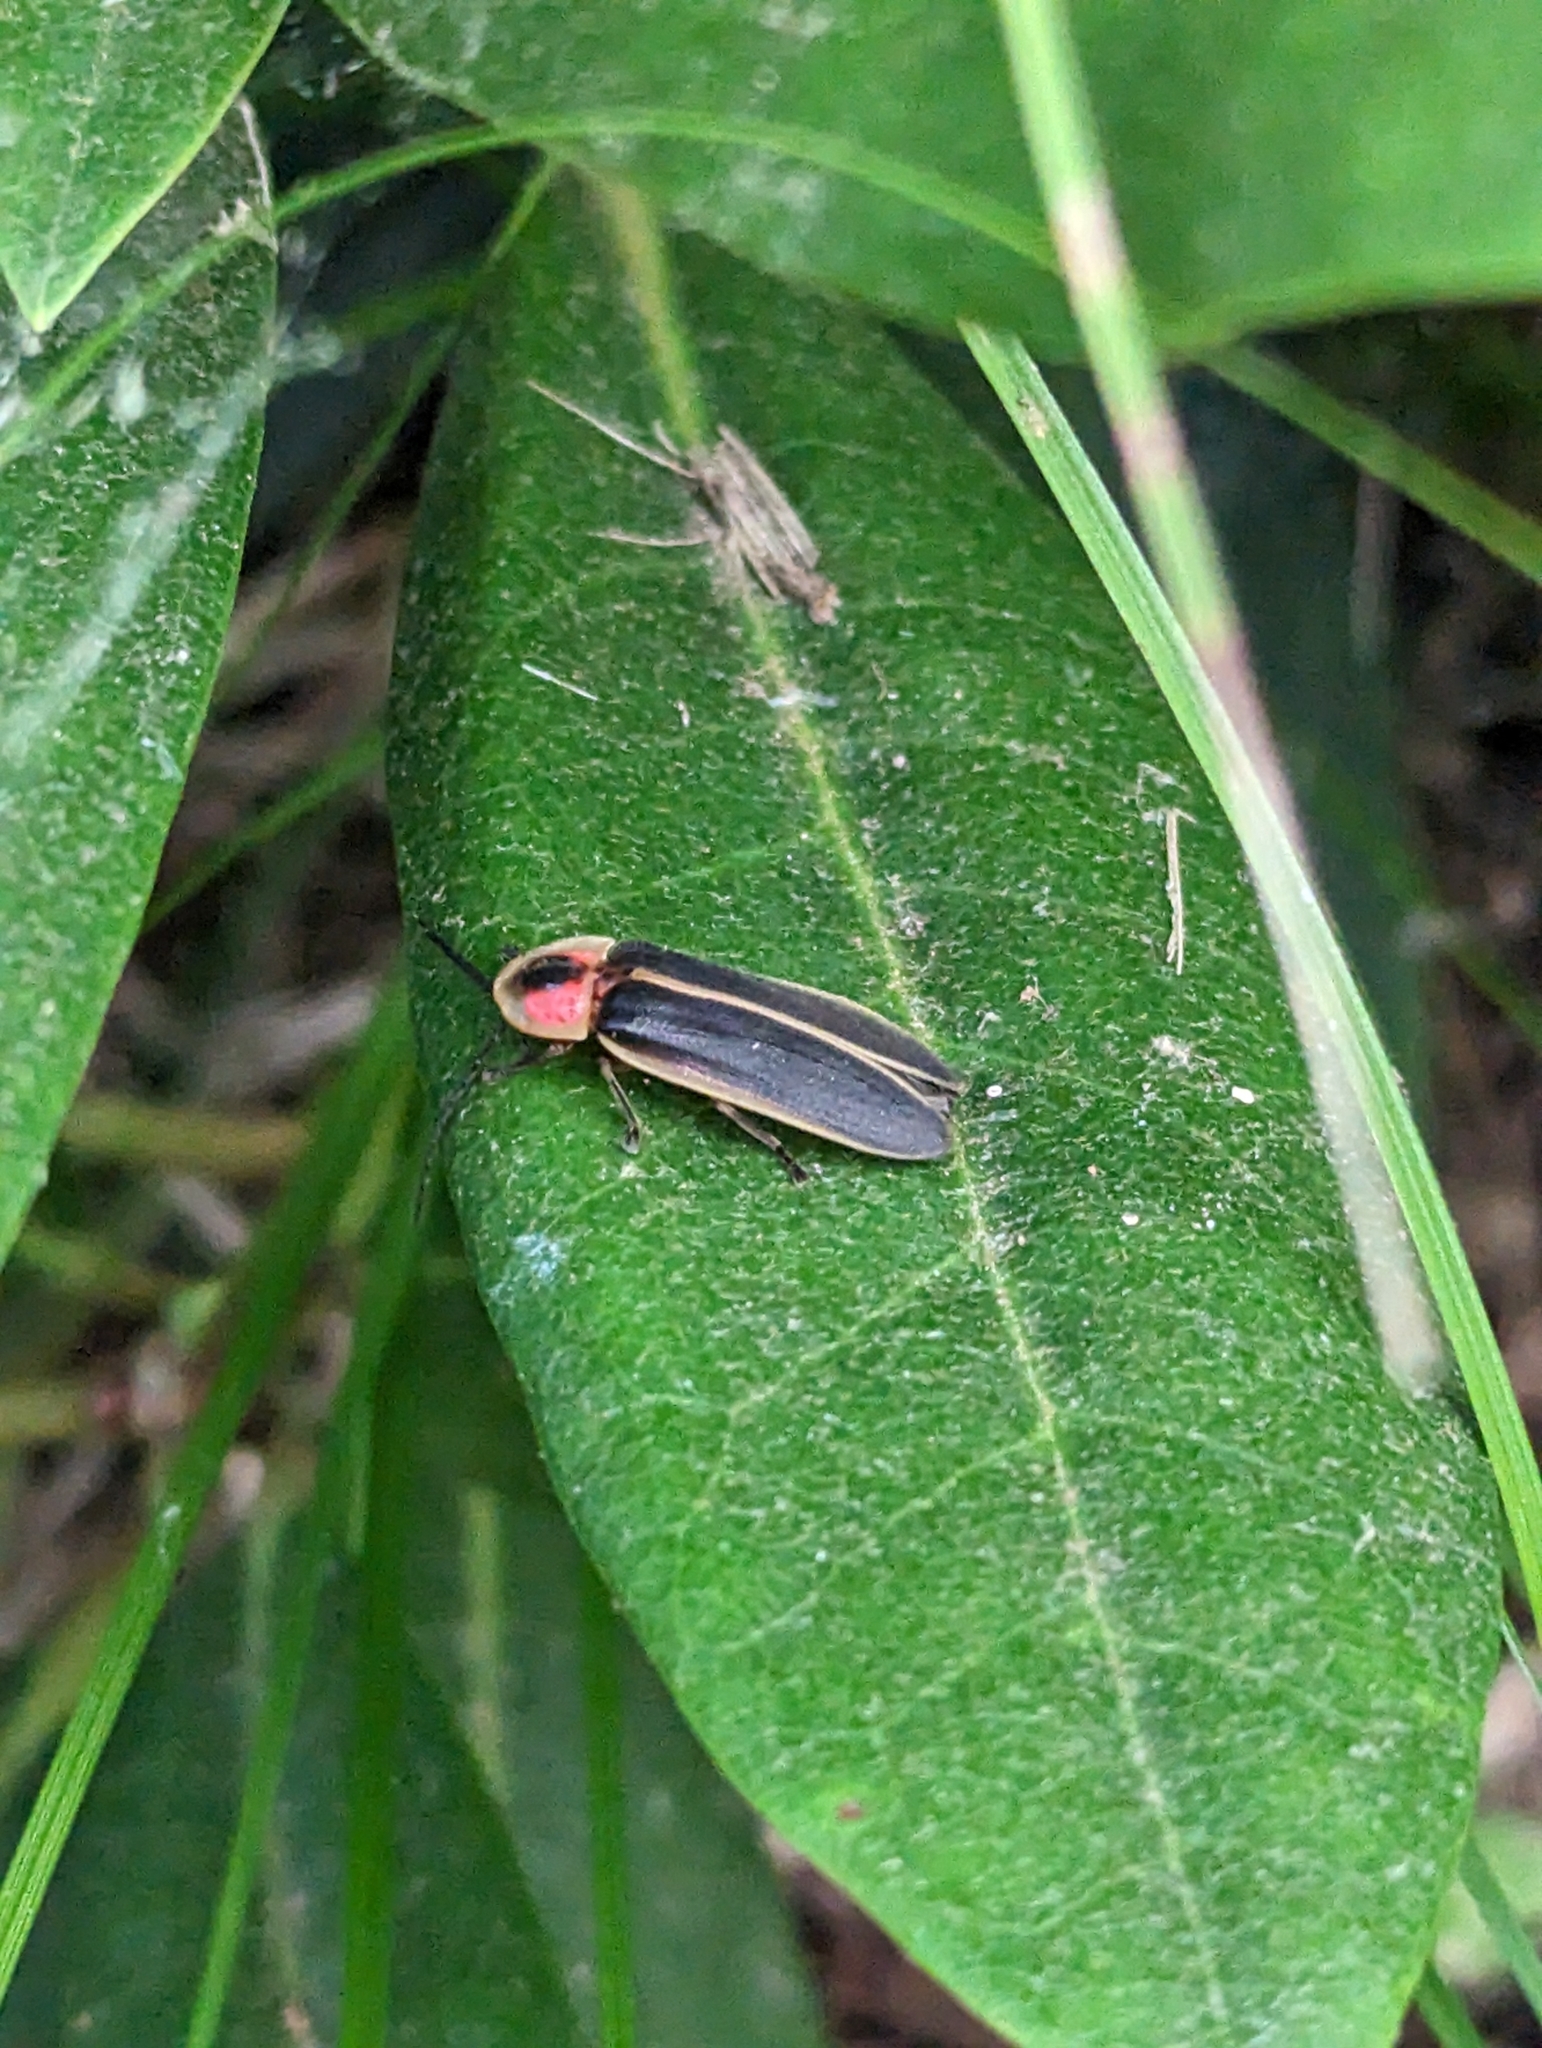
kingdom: Animalia
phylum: Arthropoda
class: Insecta
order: Coleoptera
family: Lampyridae
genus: Photinus
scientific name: Photinus pyralis
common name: Big dipper firefly
